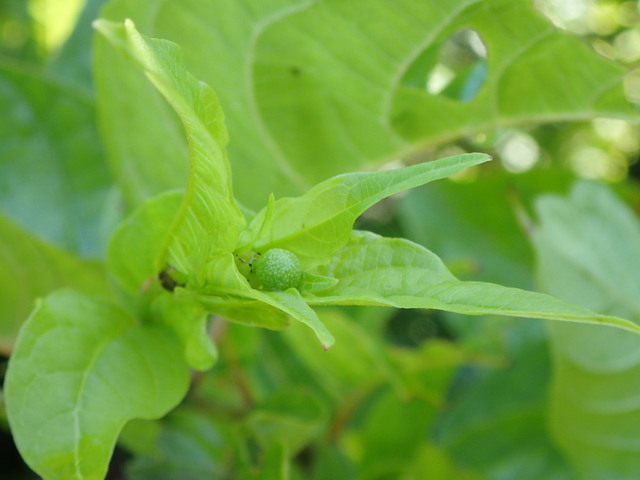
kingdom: Plantae
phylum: Tracheophyta
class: Magnoliopsida
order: Gentianales
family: Rubiaceae
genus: Cephalanthus
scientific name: Cephalanthus occidentalis
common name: Button-willow
